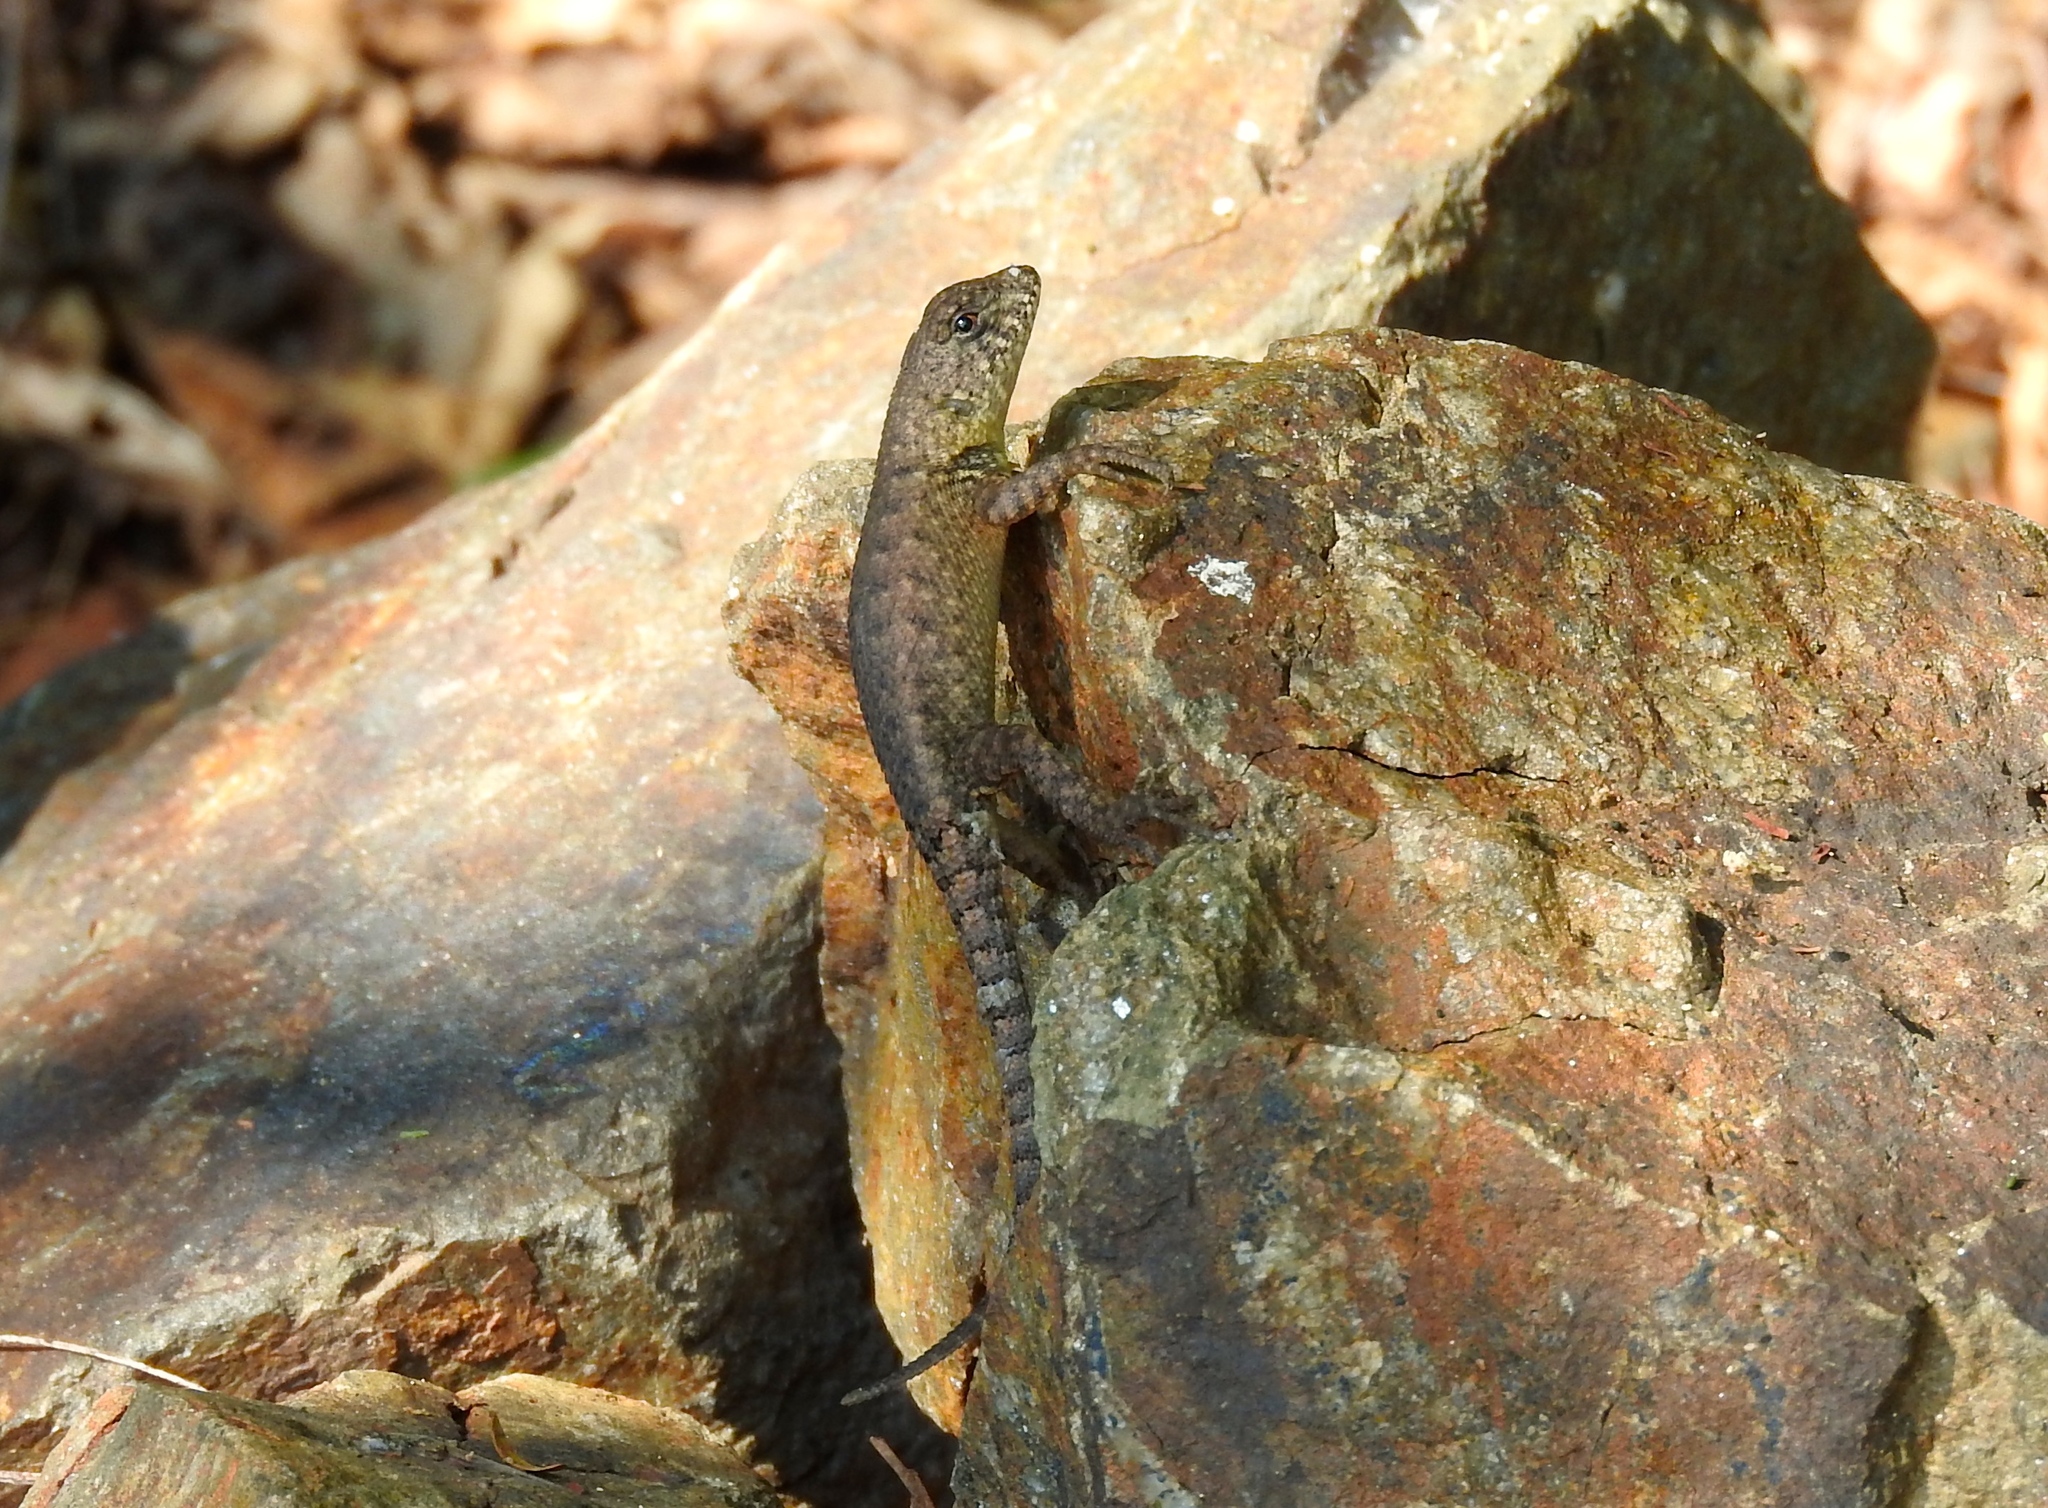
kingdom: Animalia
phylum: Chordata
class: Squamata
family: Phrynosomatidae
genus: Sceloporus
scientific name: Sceloporus nelsoni
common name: Nelson's spiny lizard
